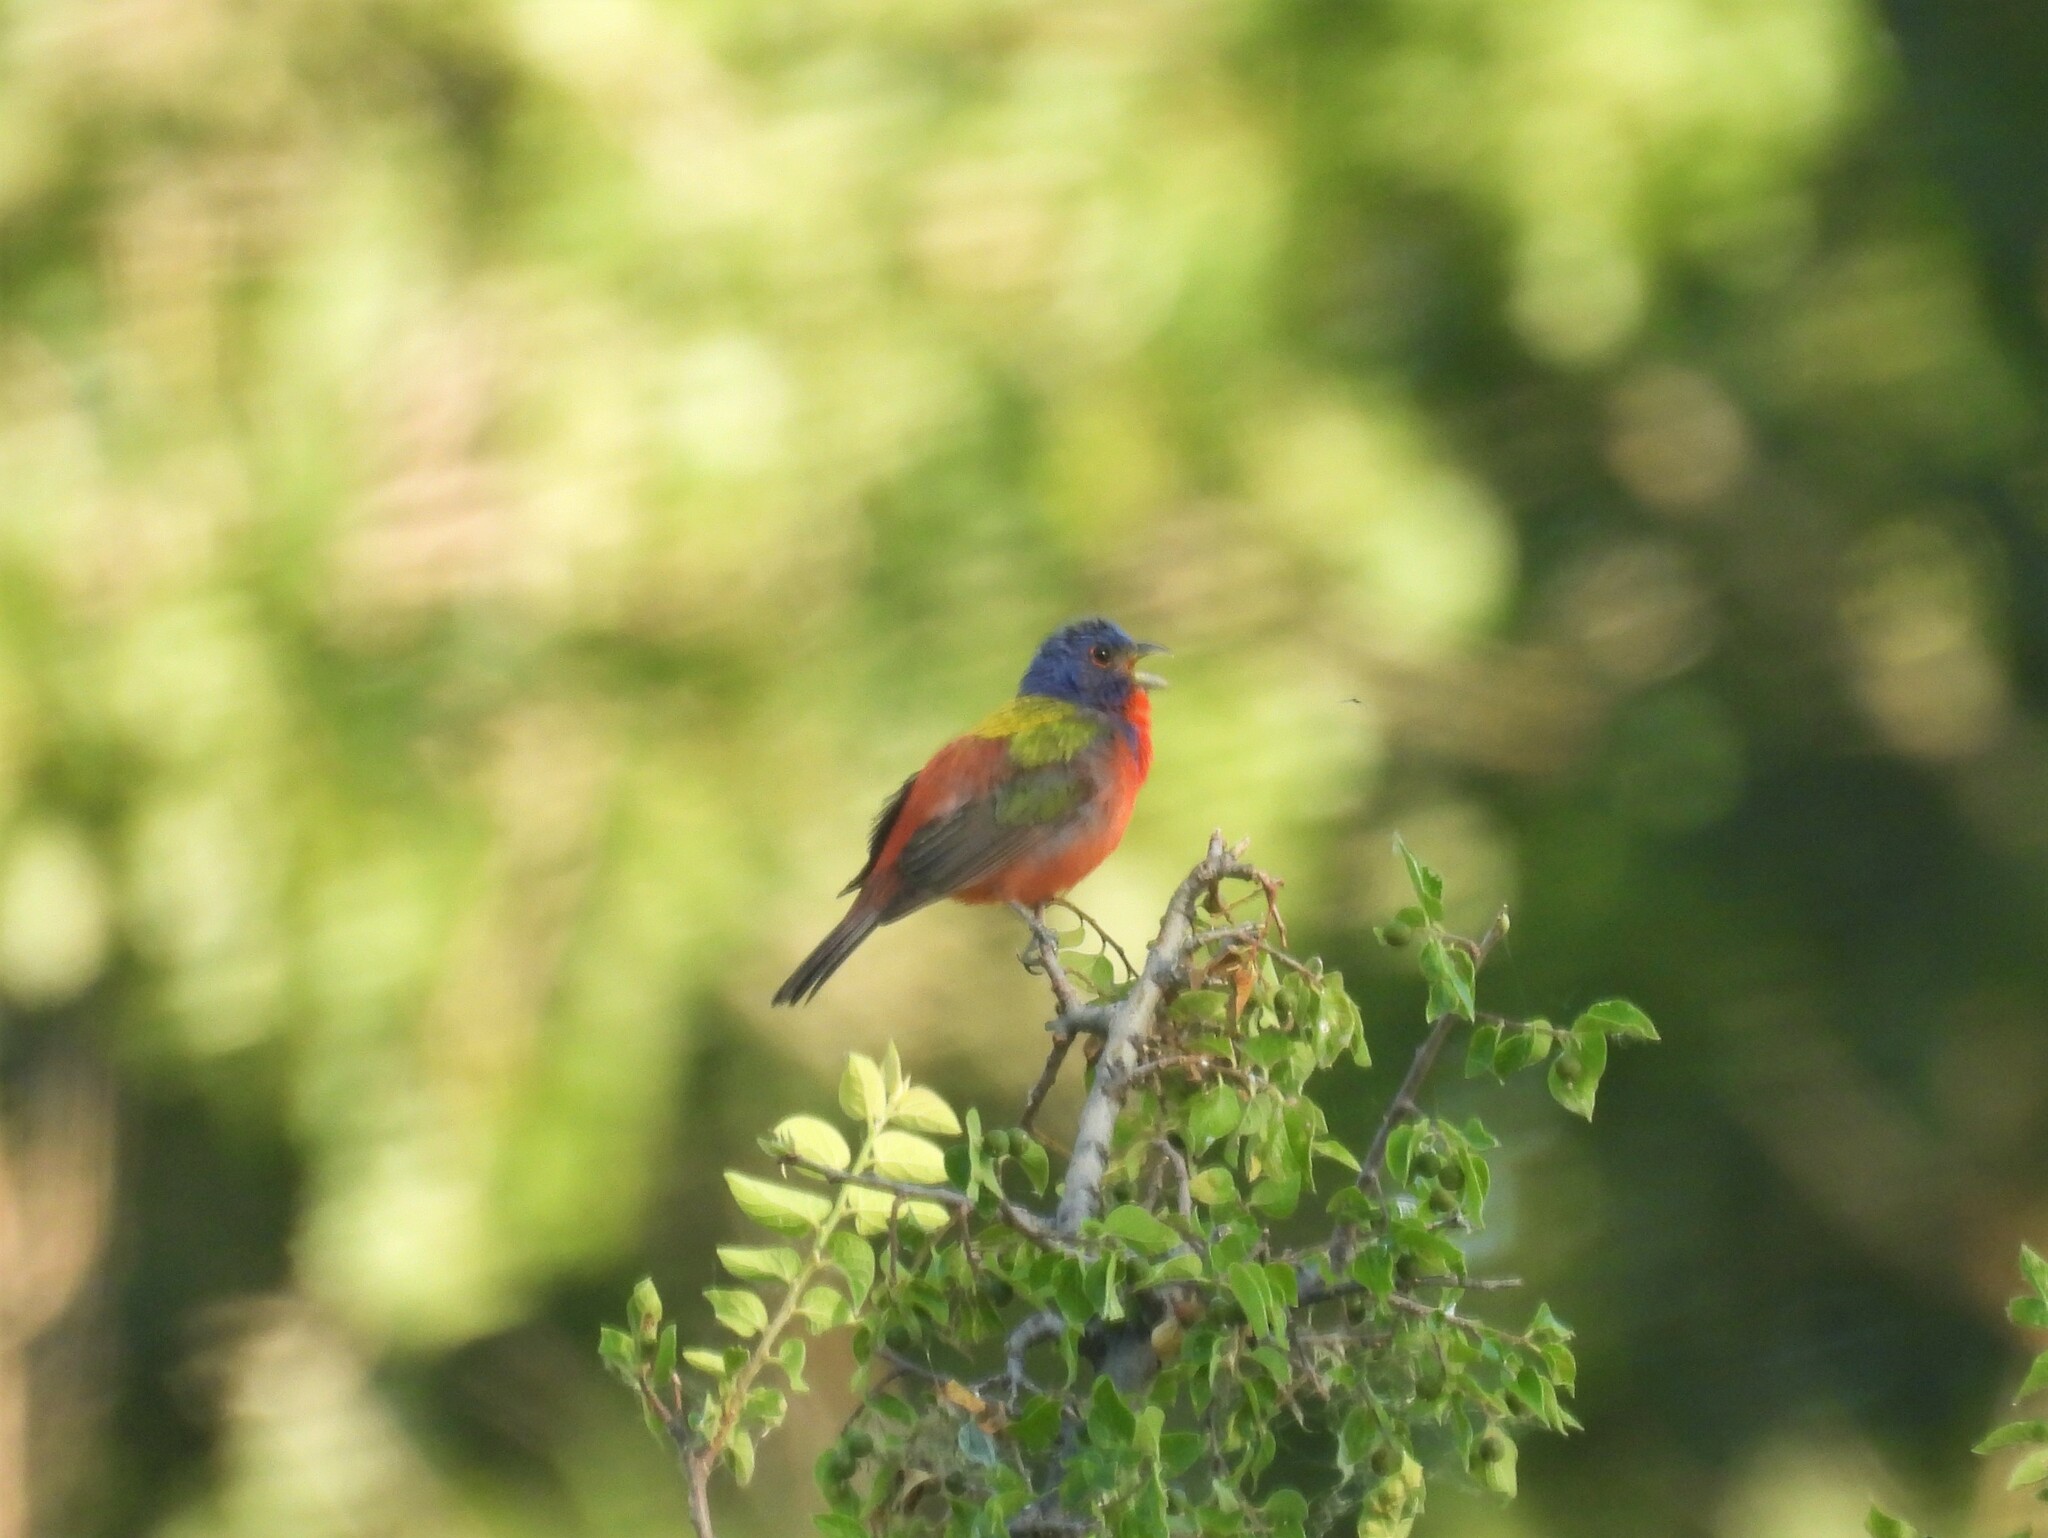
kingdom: Animalia
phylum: Chordata
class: Aves
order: Passeriformes
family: Cardinalidae
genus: Passerina
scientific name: Passerina ciris
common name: Painted bunting
